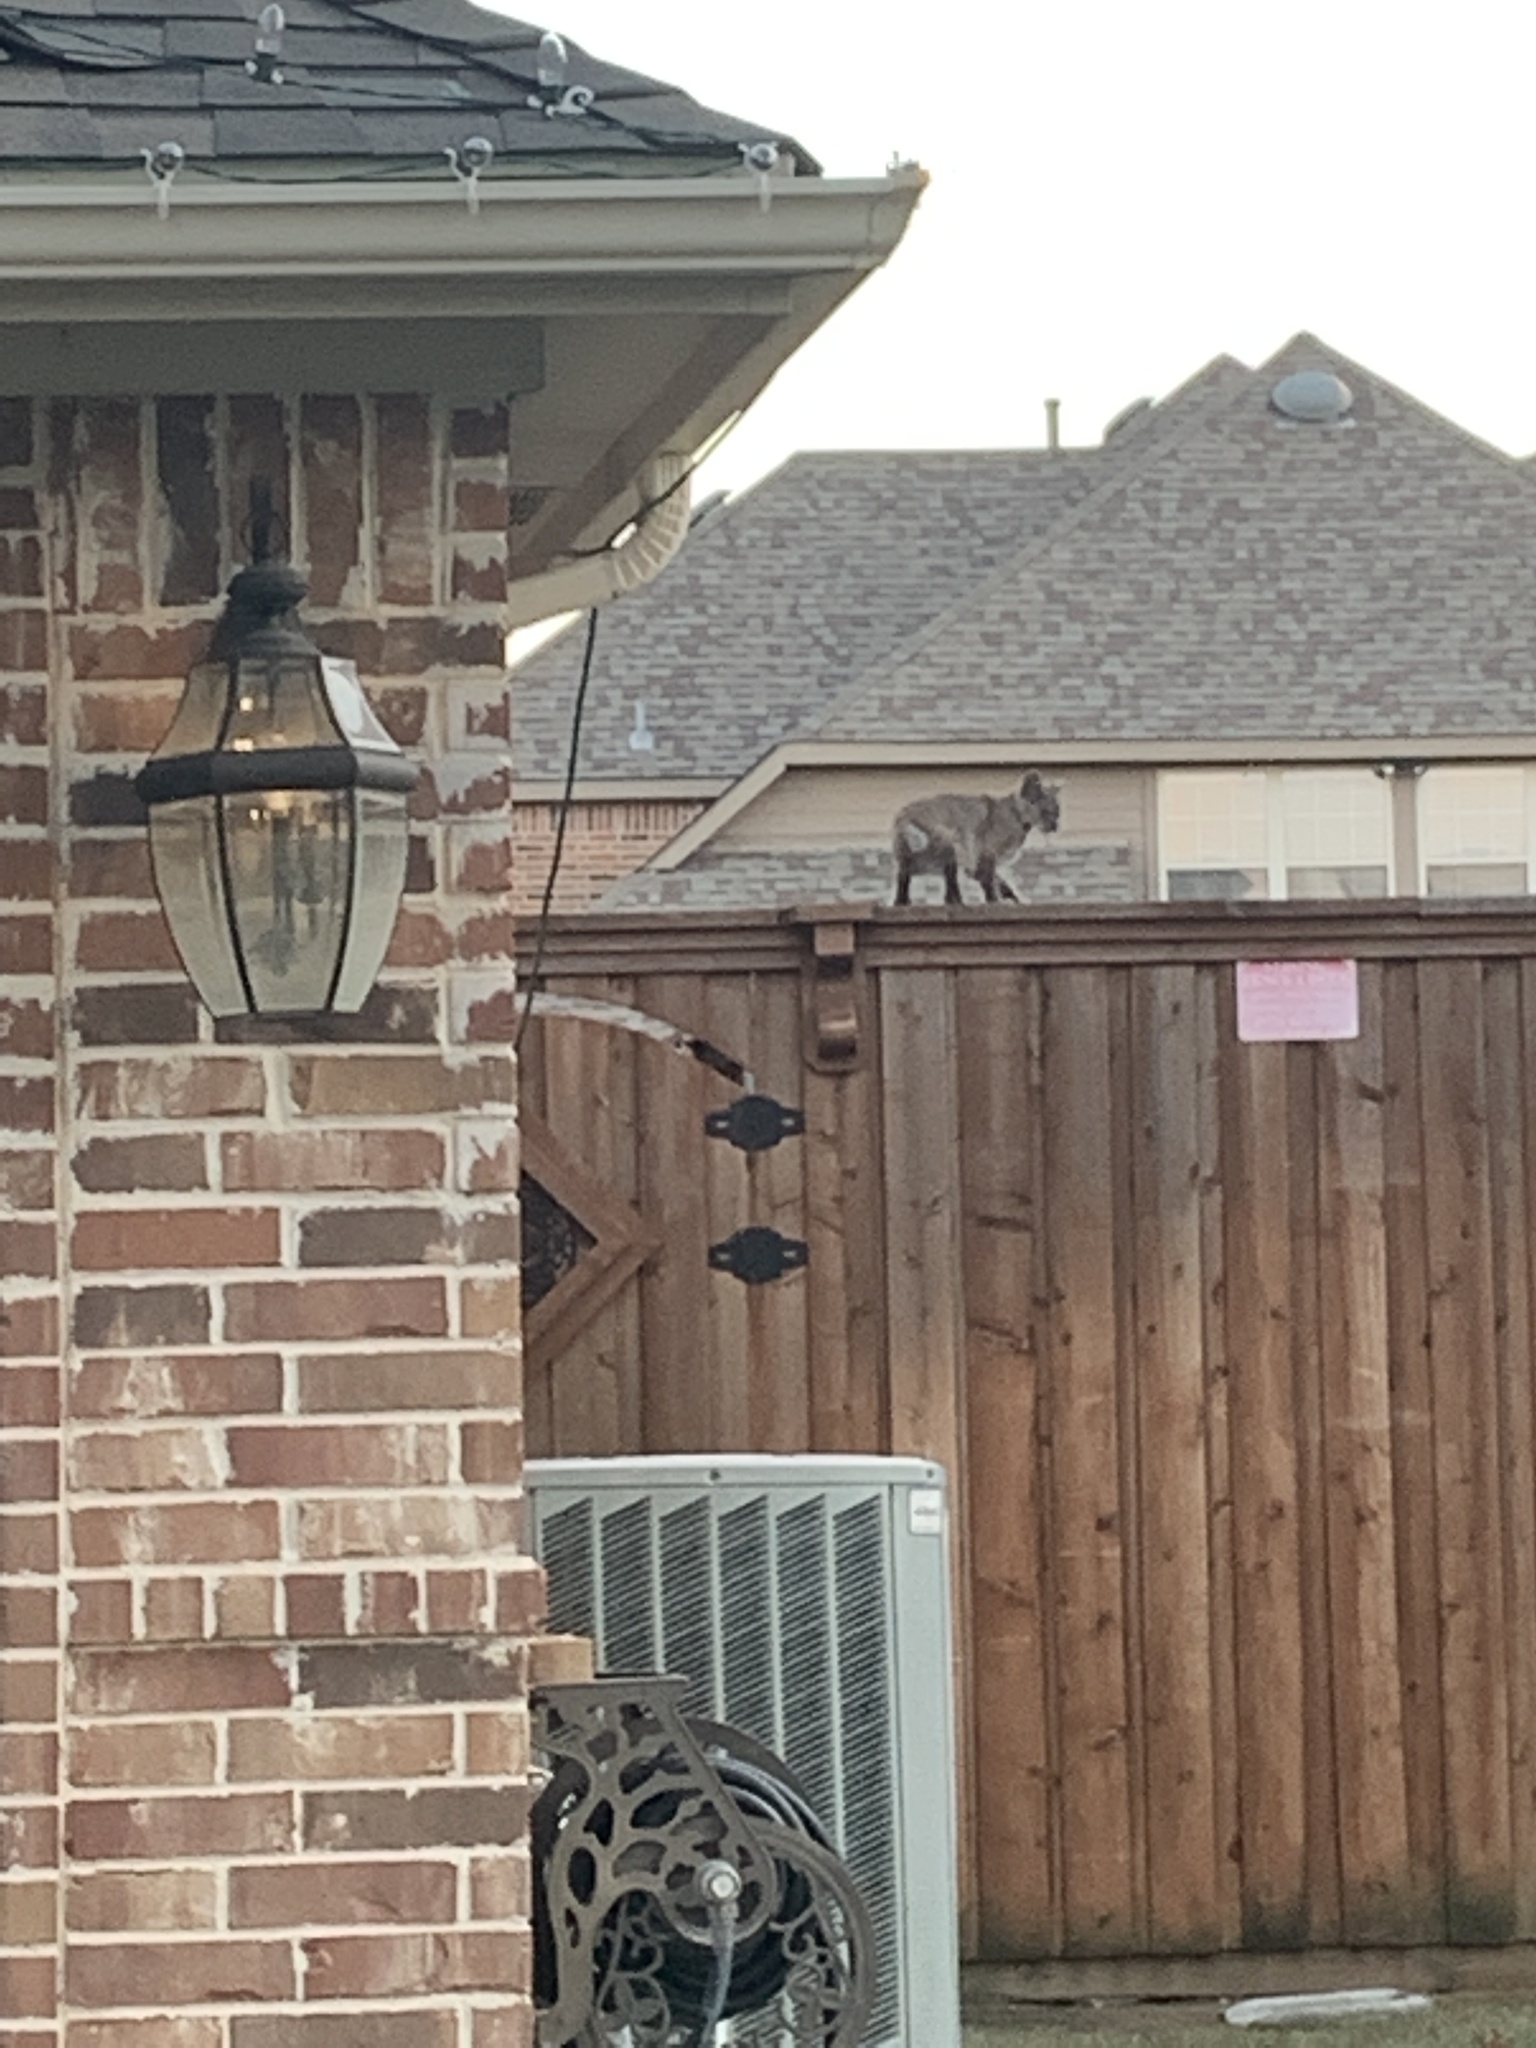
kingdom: Animalia
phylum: Chordata
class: Mammalia
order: Carnivora
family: Felidae
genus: Lynx
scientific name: Lynx rufus
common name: Bobcat
